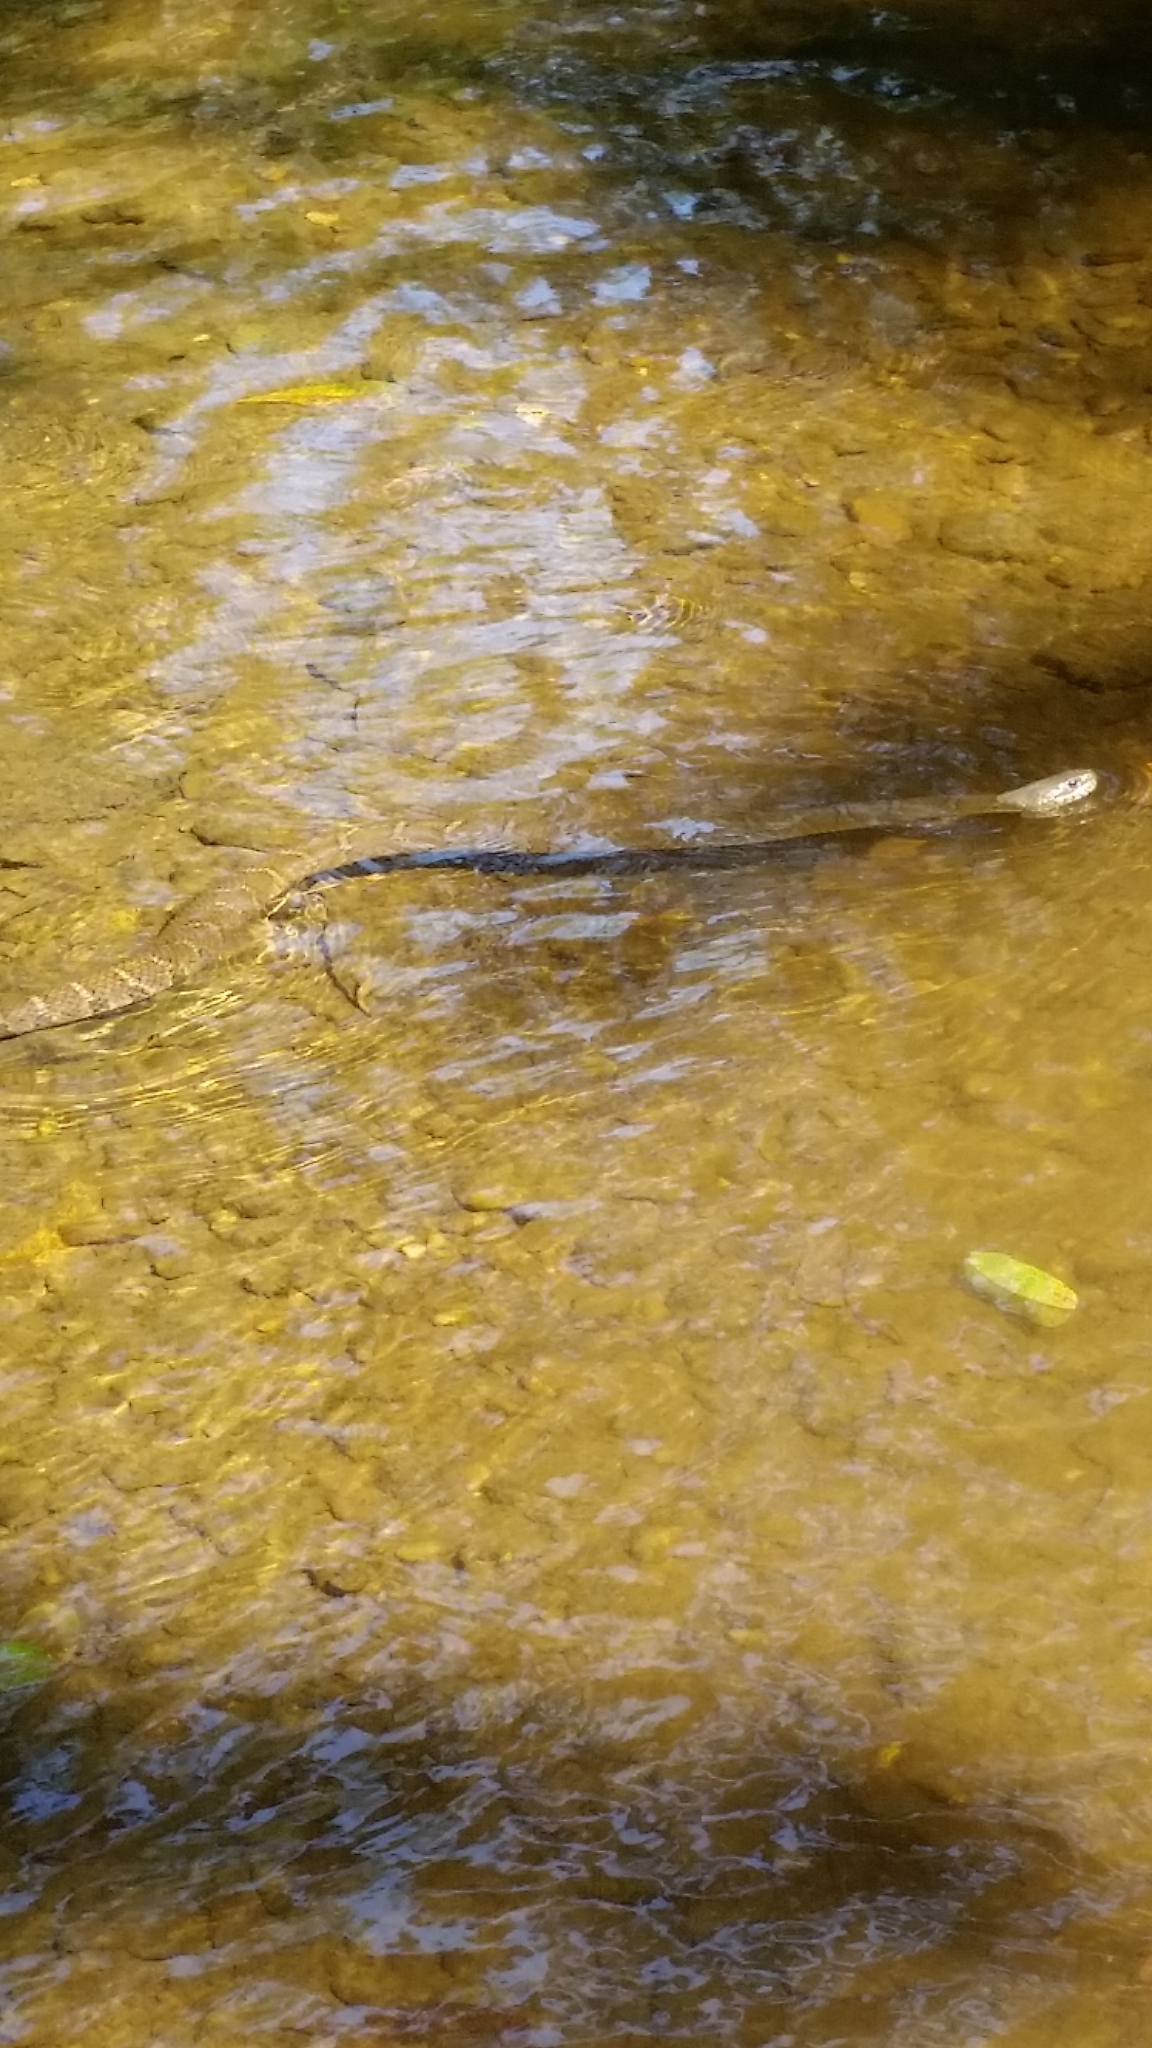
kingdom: Animalia
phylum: Chordata
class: Squamata
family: Colubridae
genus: Nerodia
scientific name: Nerodia sipedon
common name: Northern water snake
